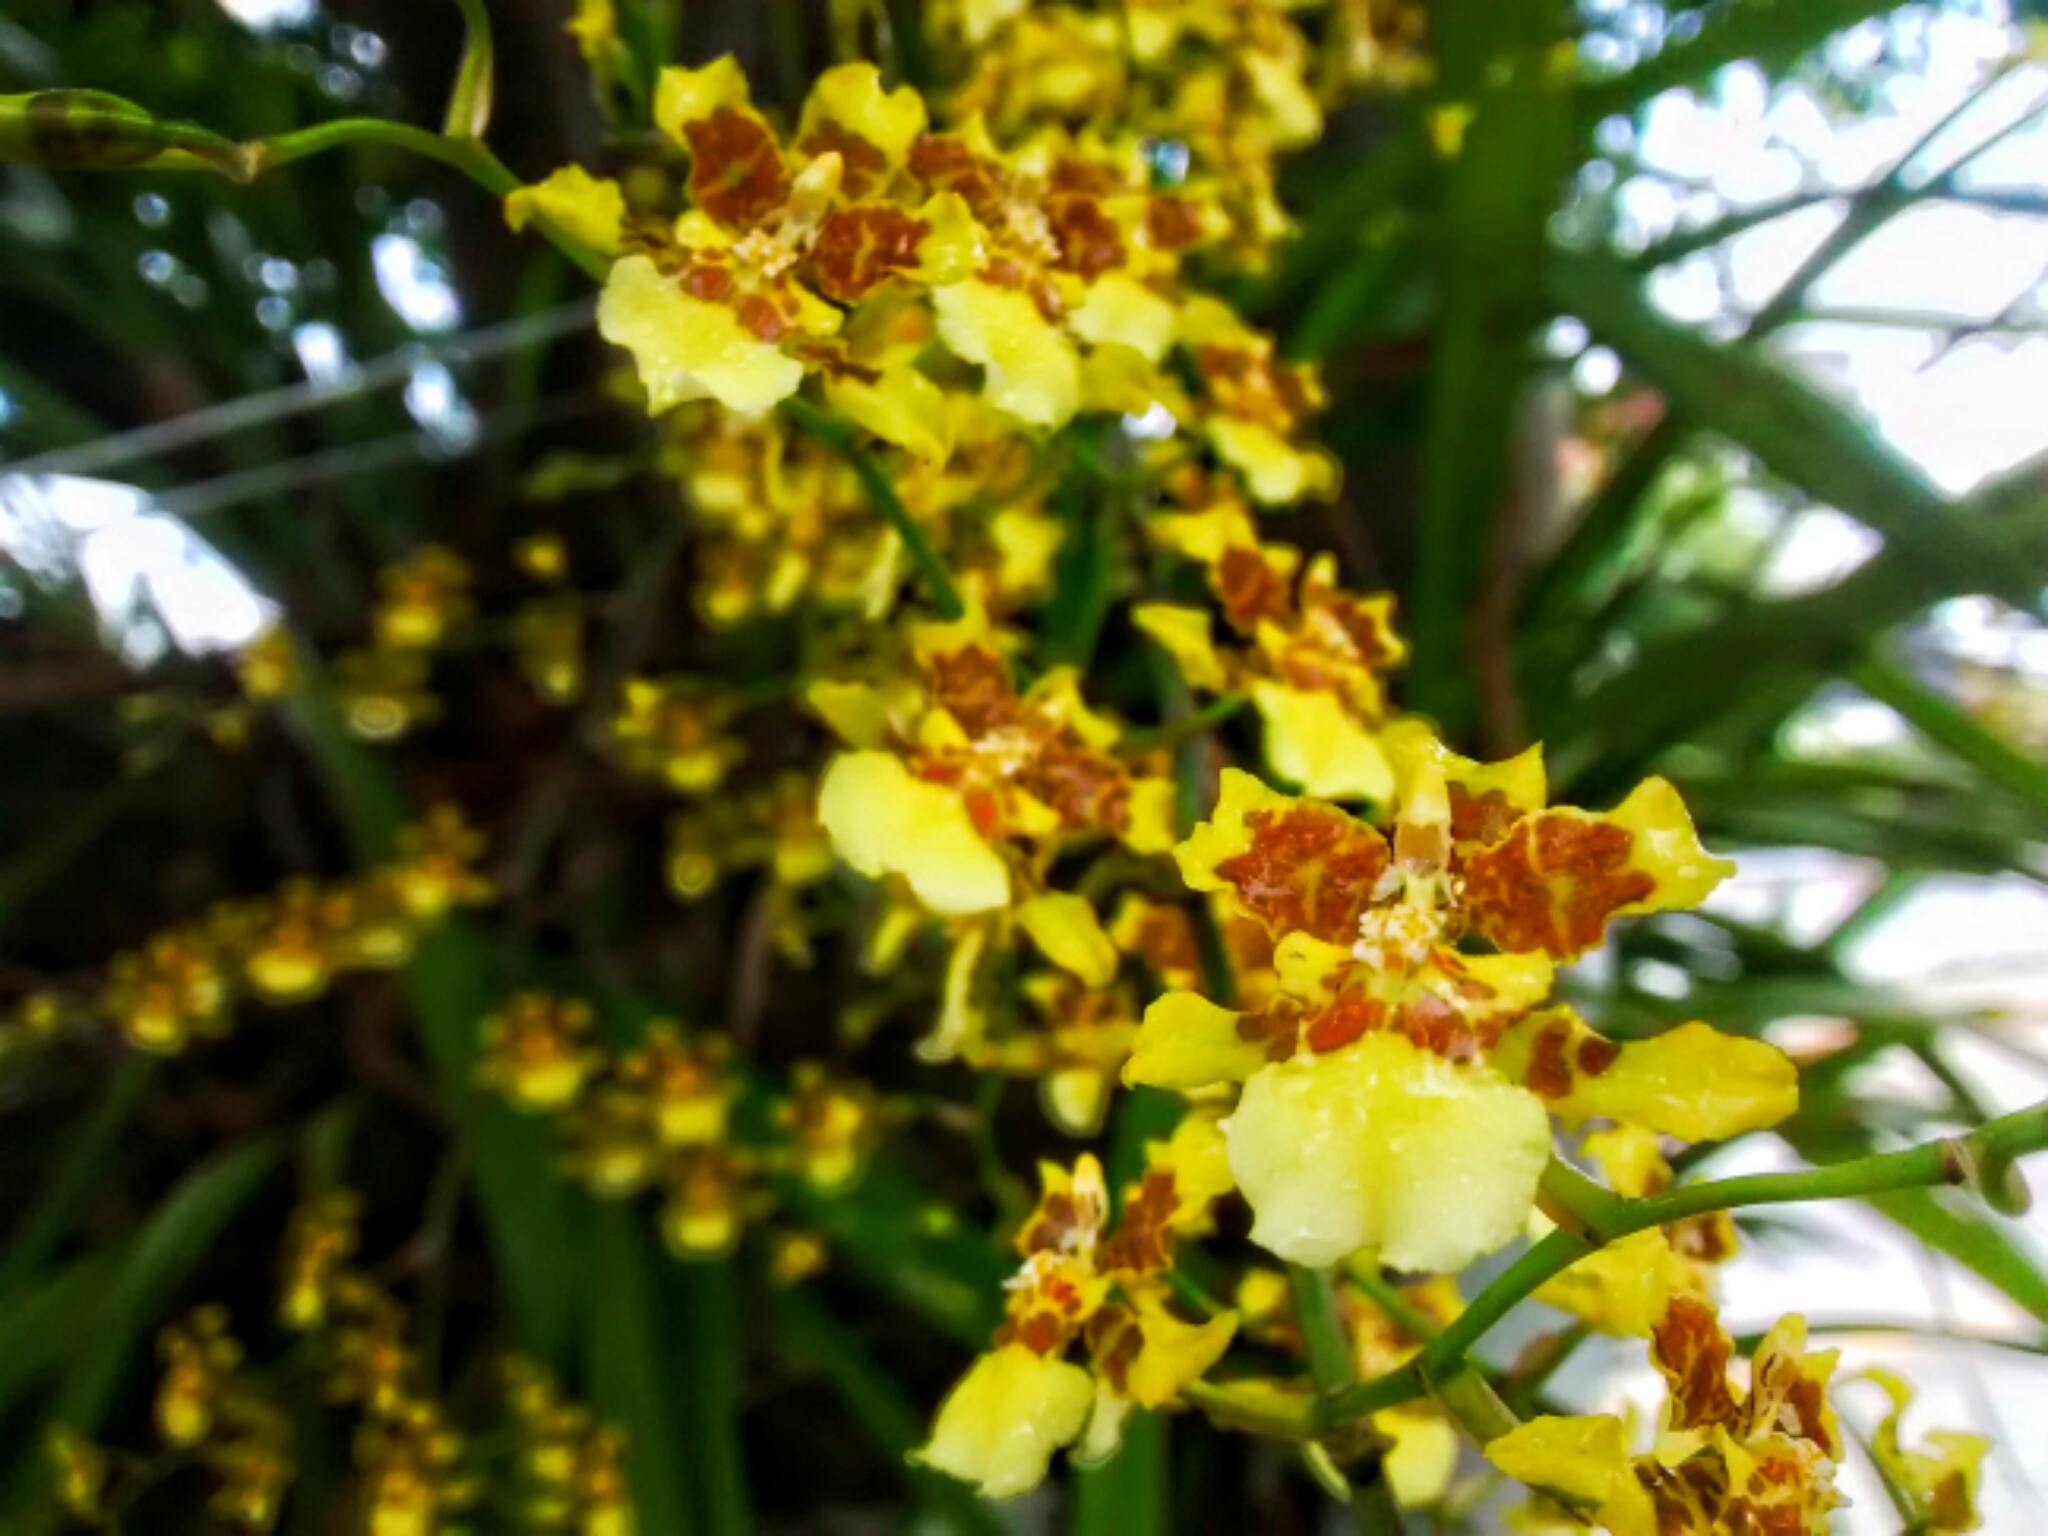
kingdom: Plantae
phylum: Tracheophyta
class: Liliopsida
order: Asparagales
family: Orchidaceae
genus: Oncidium
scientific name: Oncidium sphacelatum
